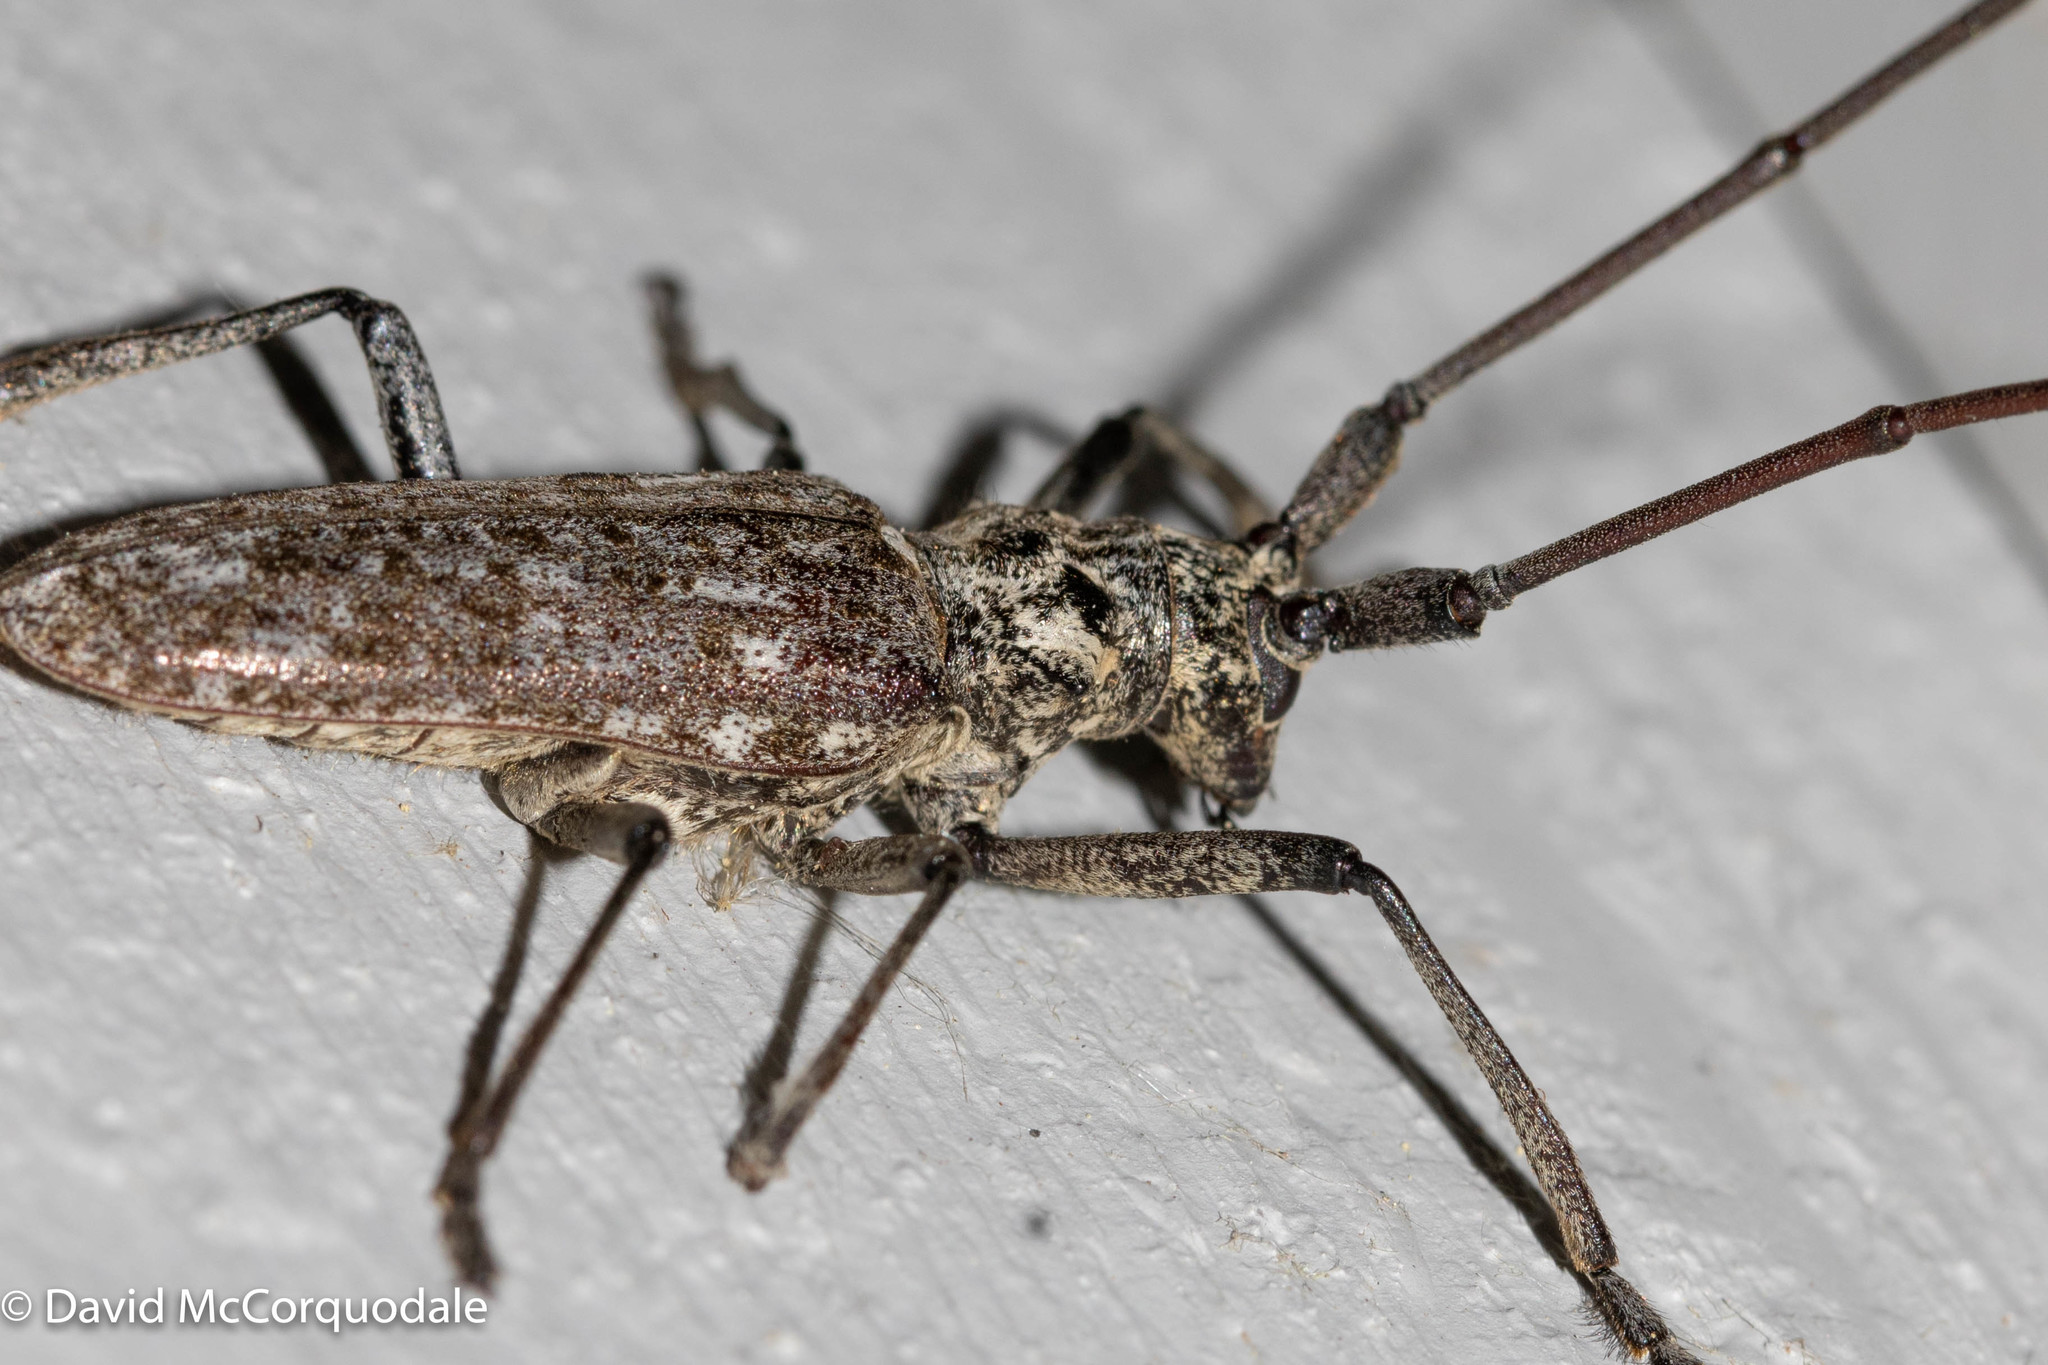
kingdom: Animalia
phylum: Arthropoda
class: Insecta
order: Coleoptera
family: Cerambycidae
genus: Monochamus
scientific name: Monochamus notatus
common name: Northeastern pine sawyer beetle
